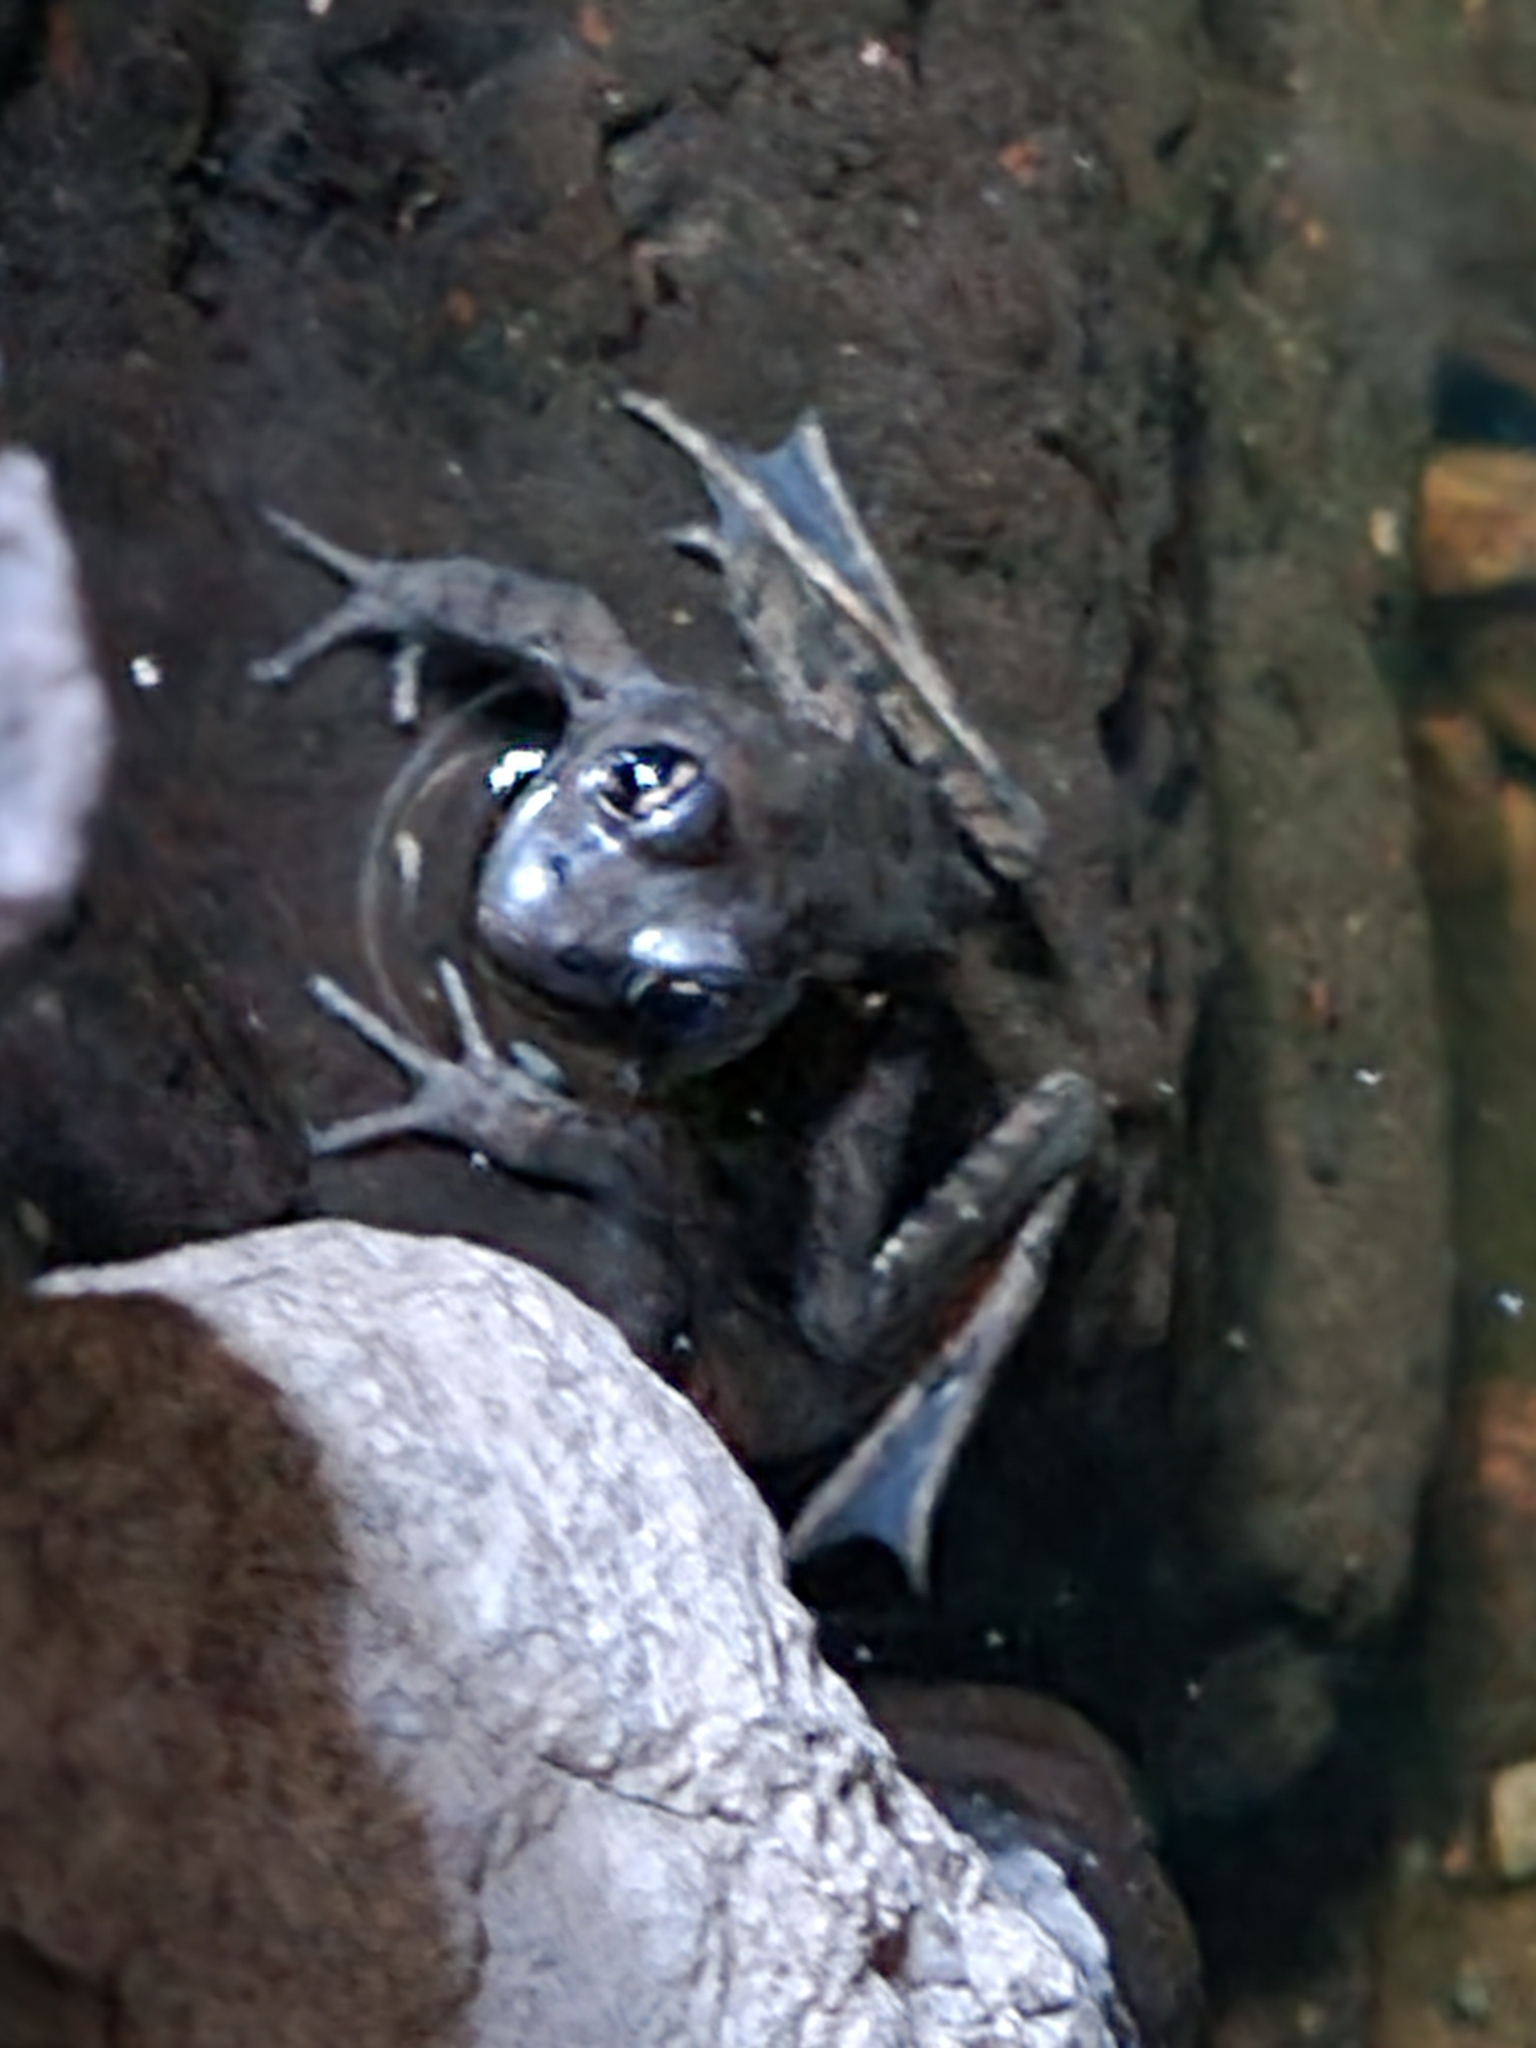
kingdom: Animalia
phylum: Chordata
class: Amphibia
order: Anura
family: Ranidae
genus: Rana
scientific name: Rana draytonii
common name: California red-legged frog
